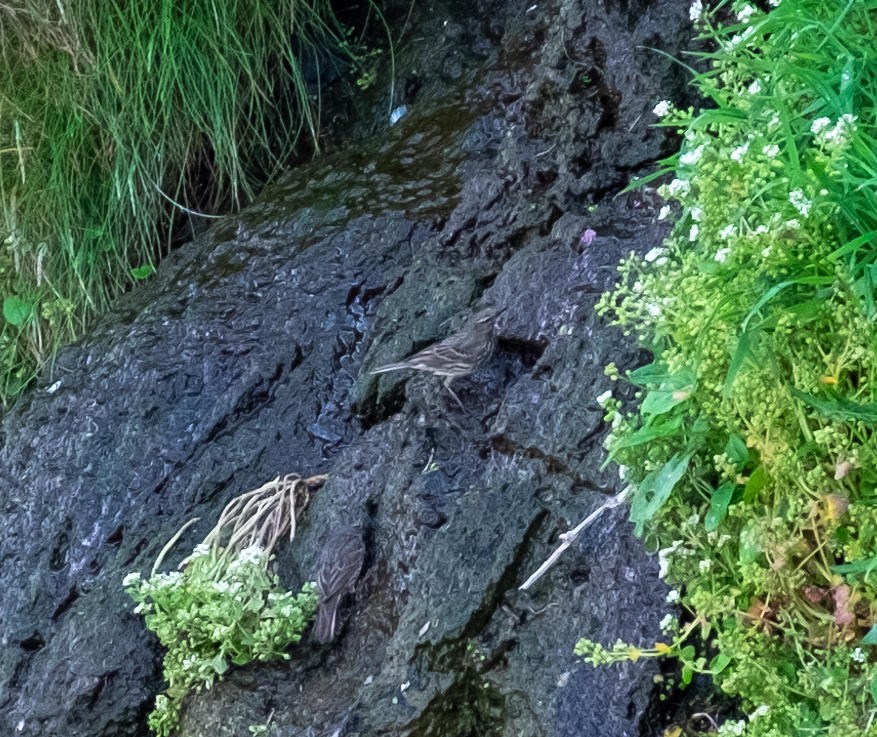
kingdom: Animalia
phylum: Chordata
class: Aves
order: Passeriformes
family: Motacillidae
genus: Anthus
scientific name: Anthus petrosus
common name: Eurasian rock pipit
